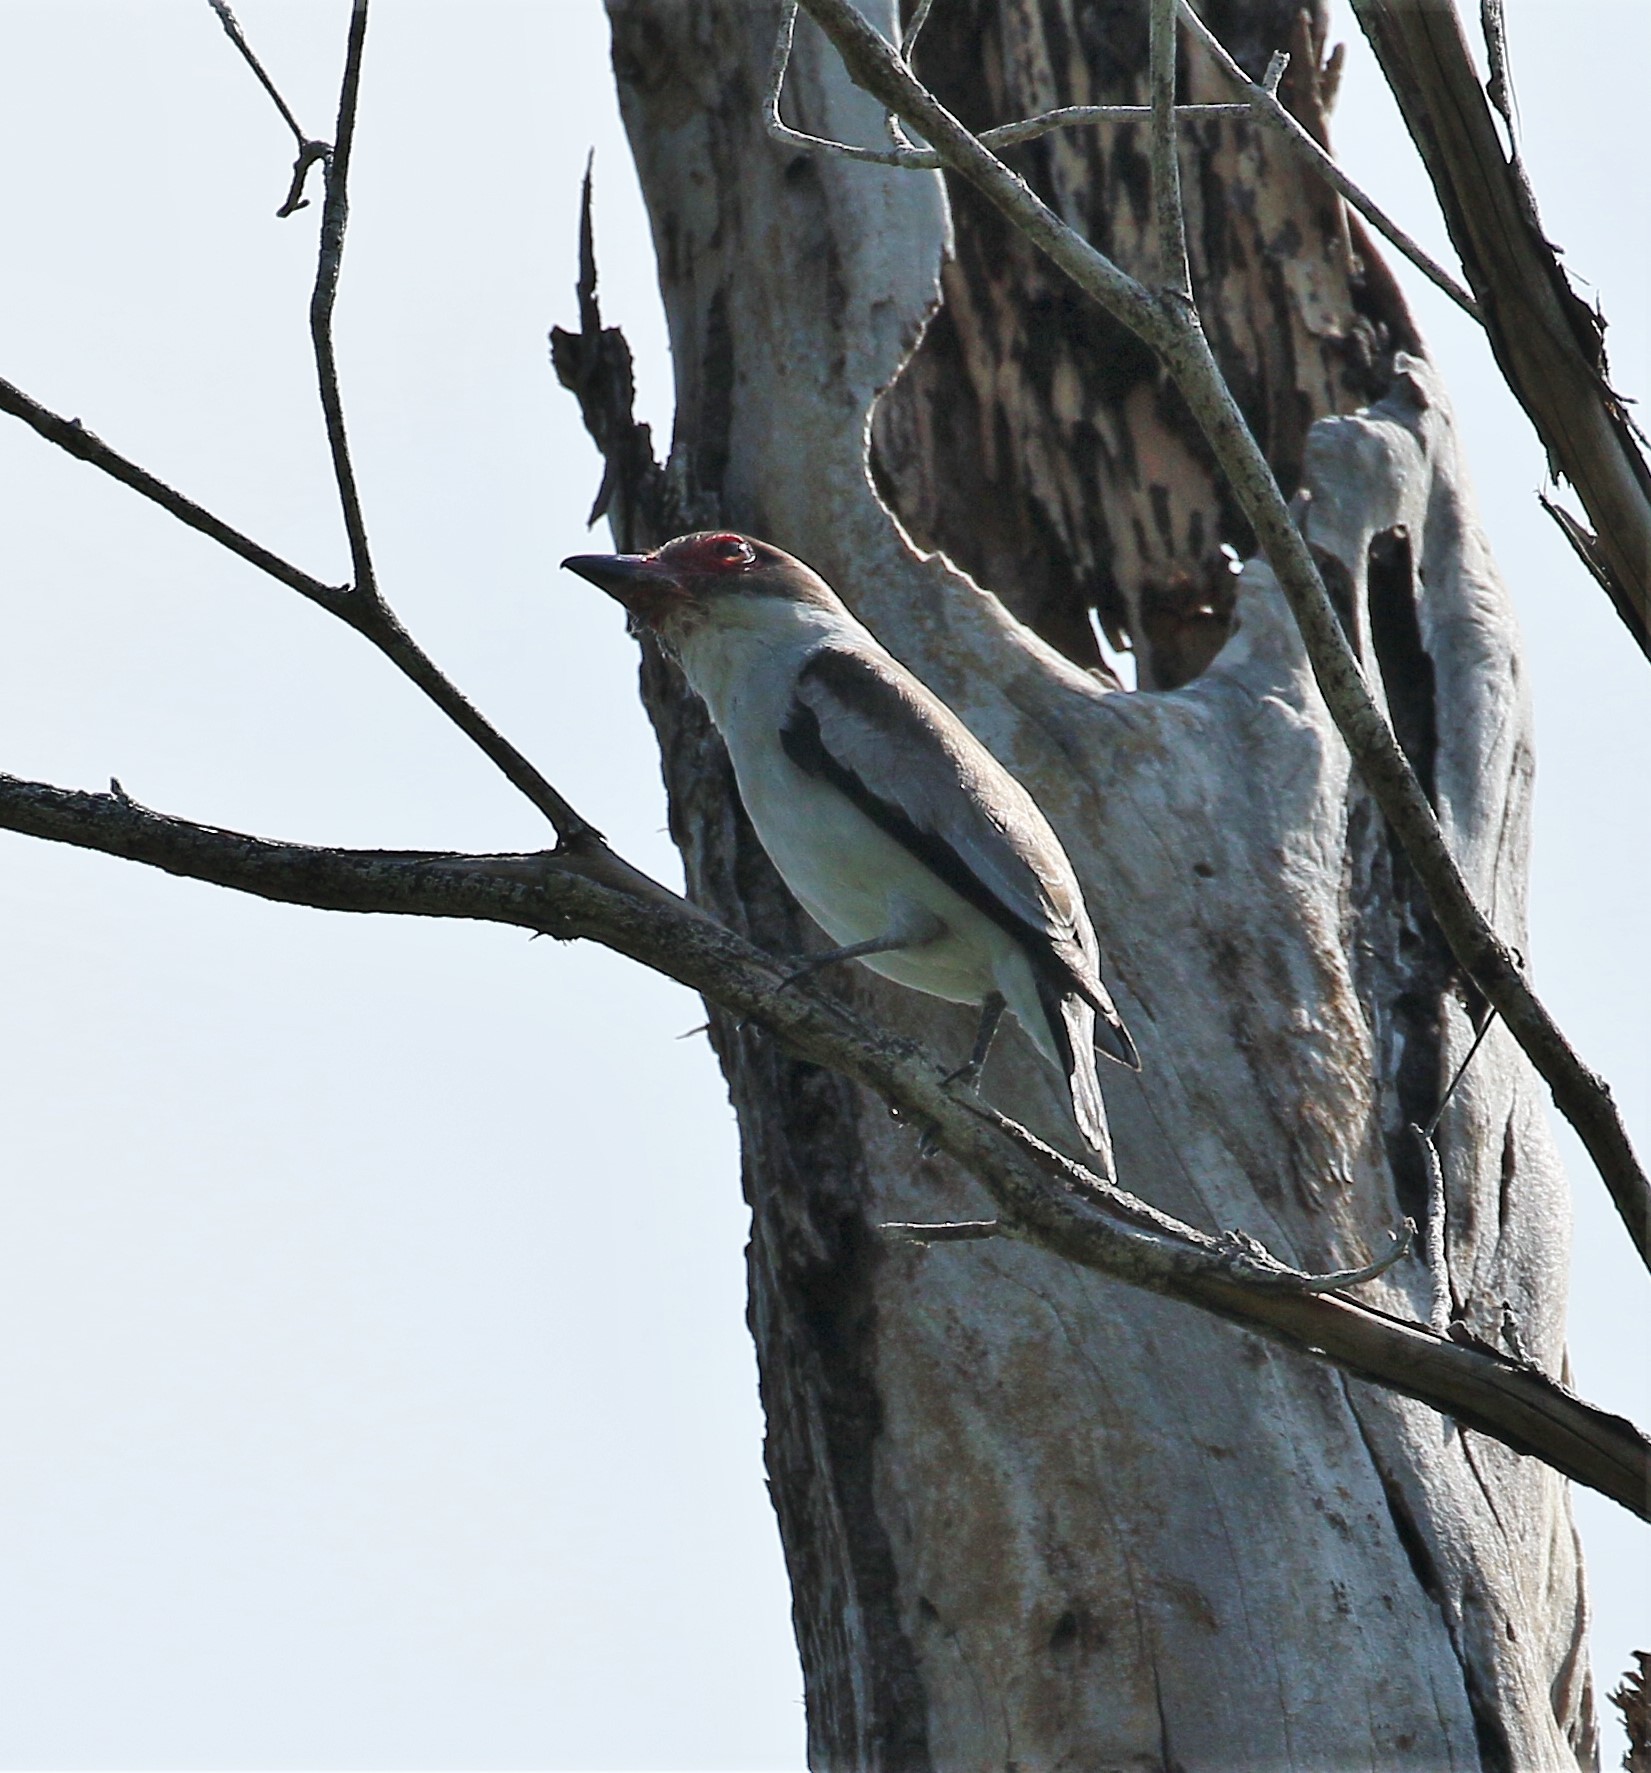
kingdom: Animalia
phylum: Chordata
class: Aves
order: Passeriformes
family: Cotingidae
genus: Tityra
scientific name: Tityra semifasciata
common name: Masked tityra
